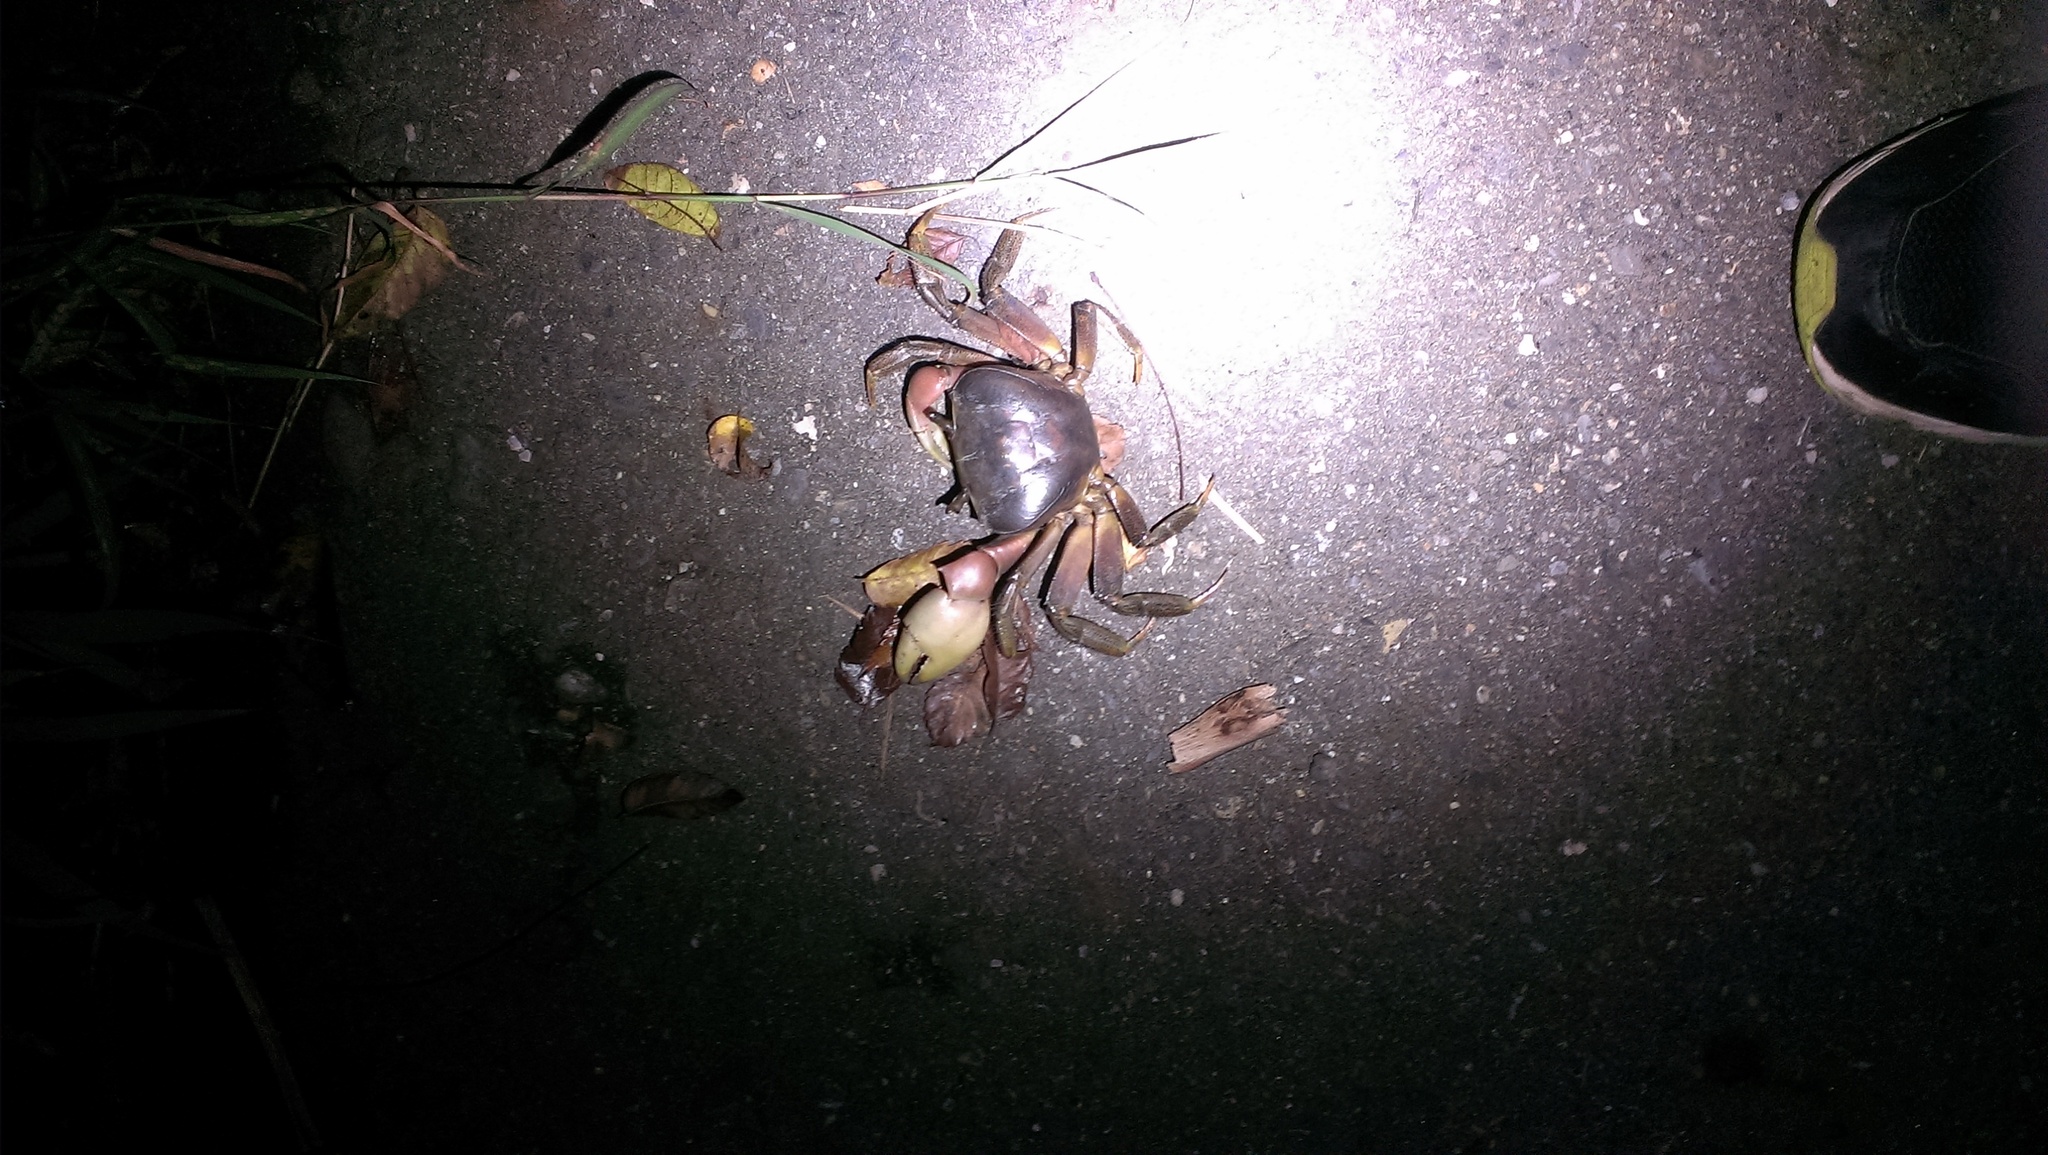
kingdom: Animalia
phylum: Arthropoda
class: Malacostraca
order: Decapoda
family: Gecarcinidae
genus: Cardisoma
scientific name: Cardisoma carnifex
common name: Brown land crab
